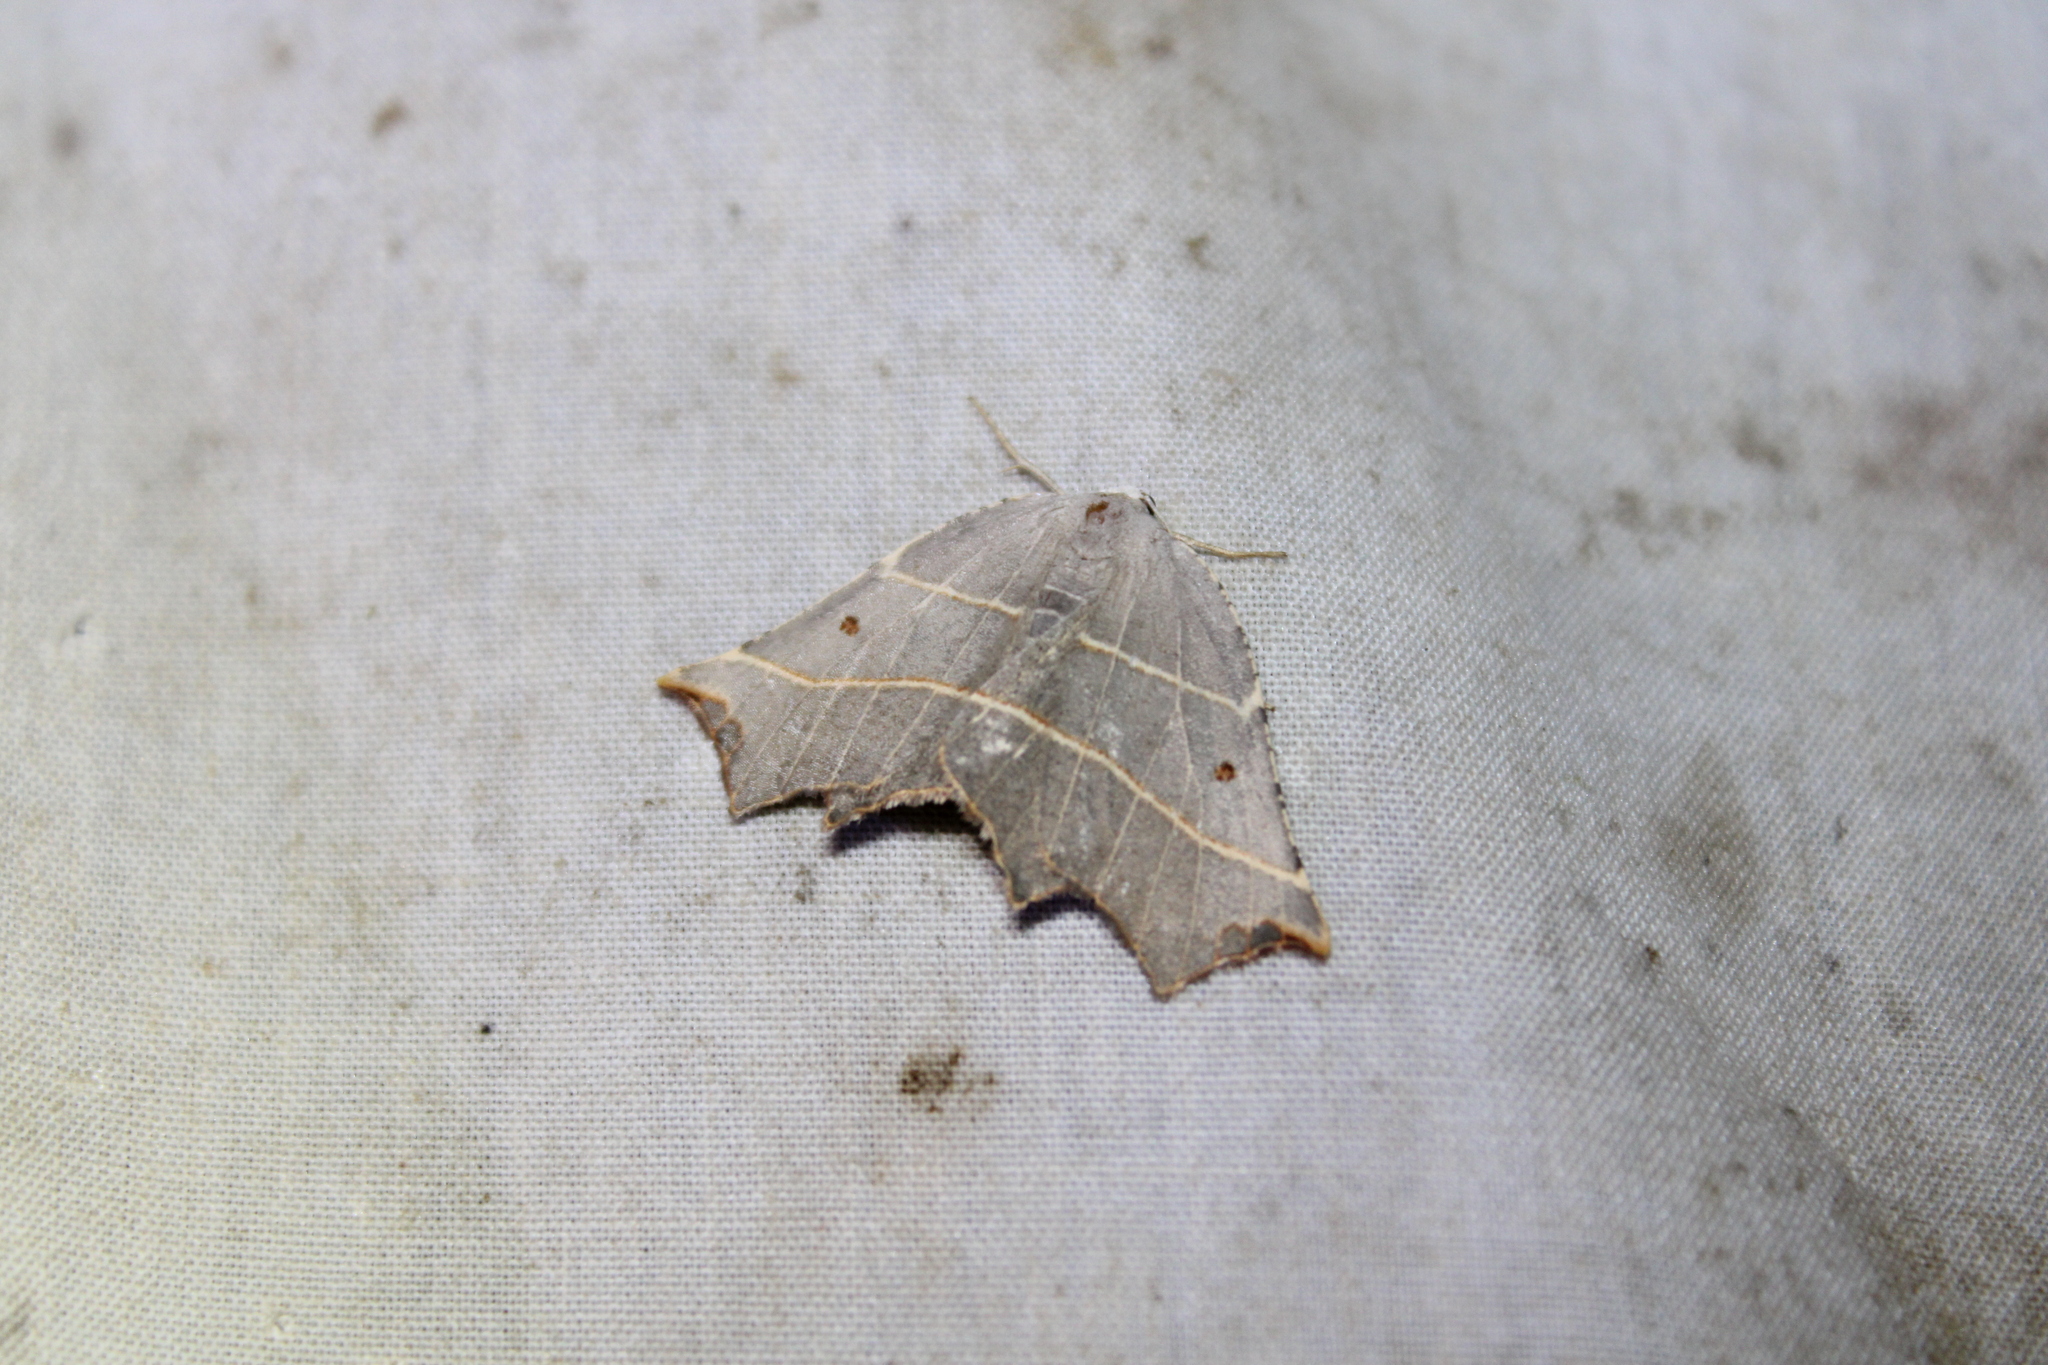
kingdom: Animalia
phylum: Arthropoda
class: Insecta
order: Lepidoptera
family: Geometridae
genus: Metanema
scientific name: Metanema inatomaria
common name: Pale metanema
